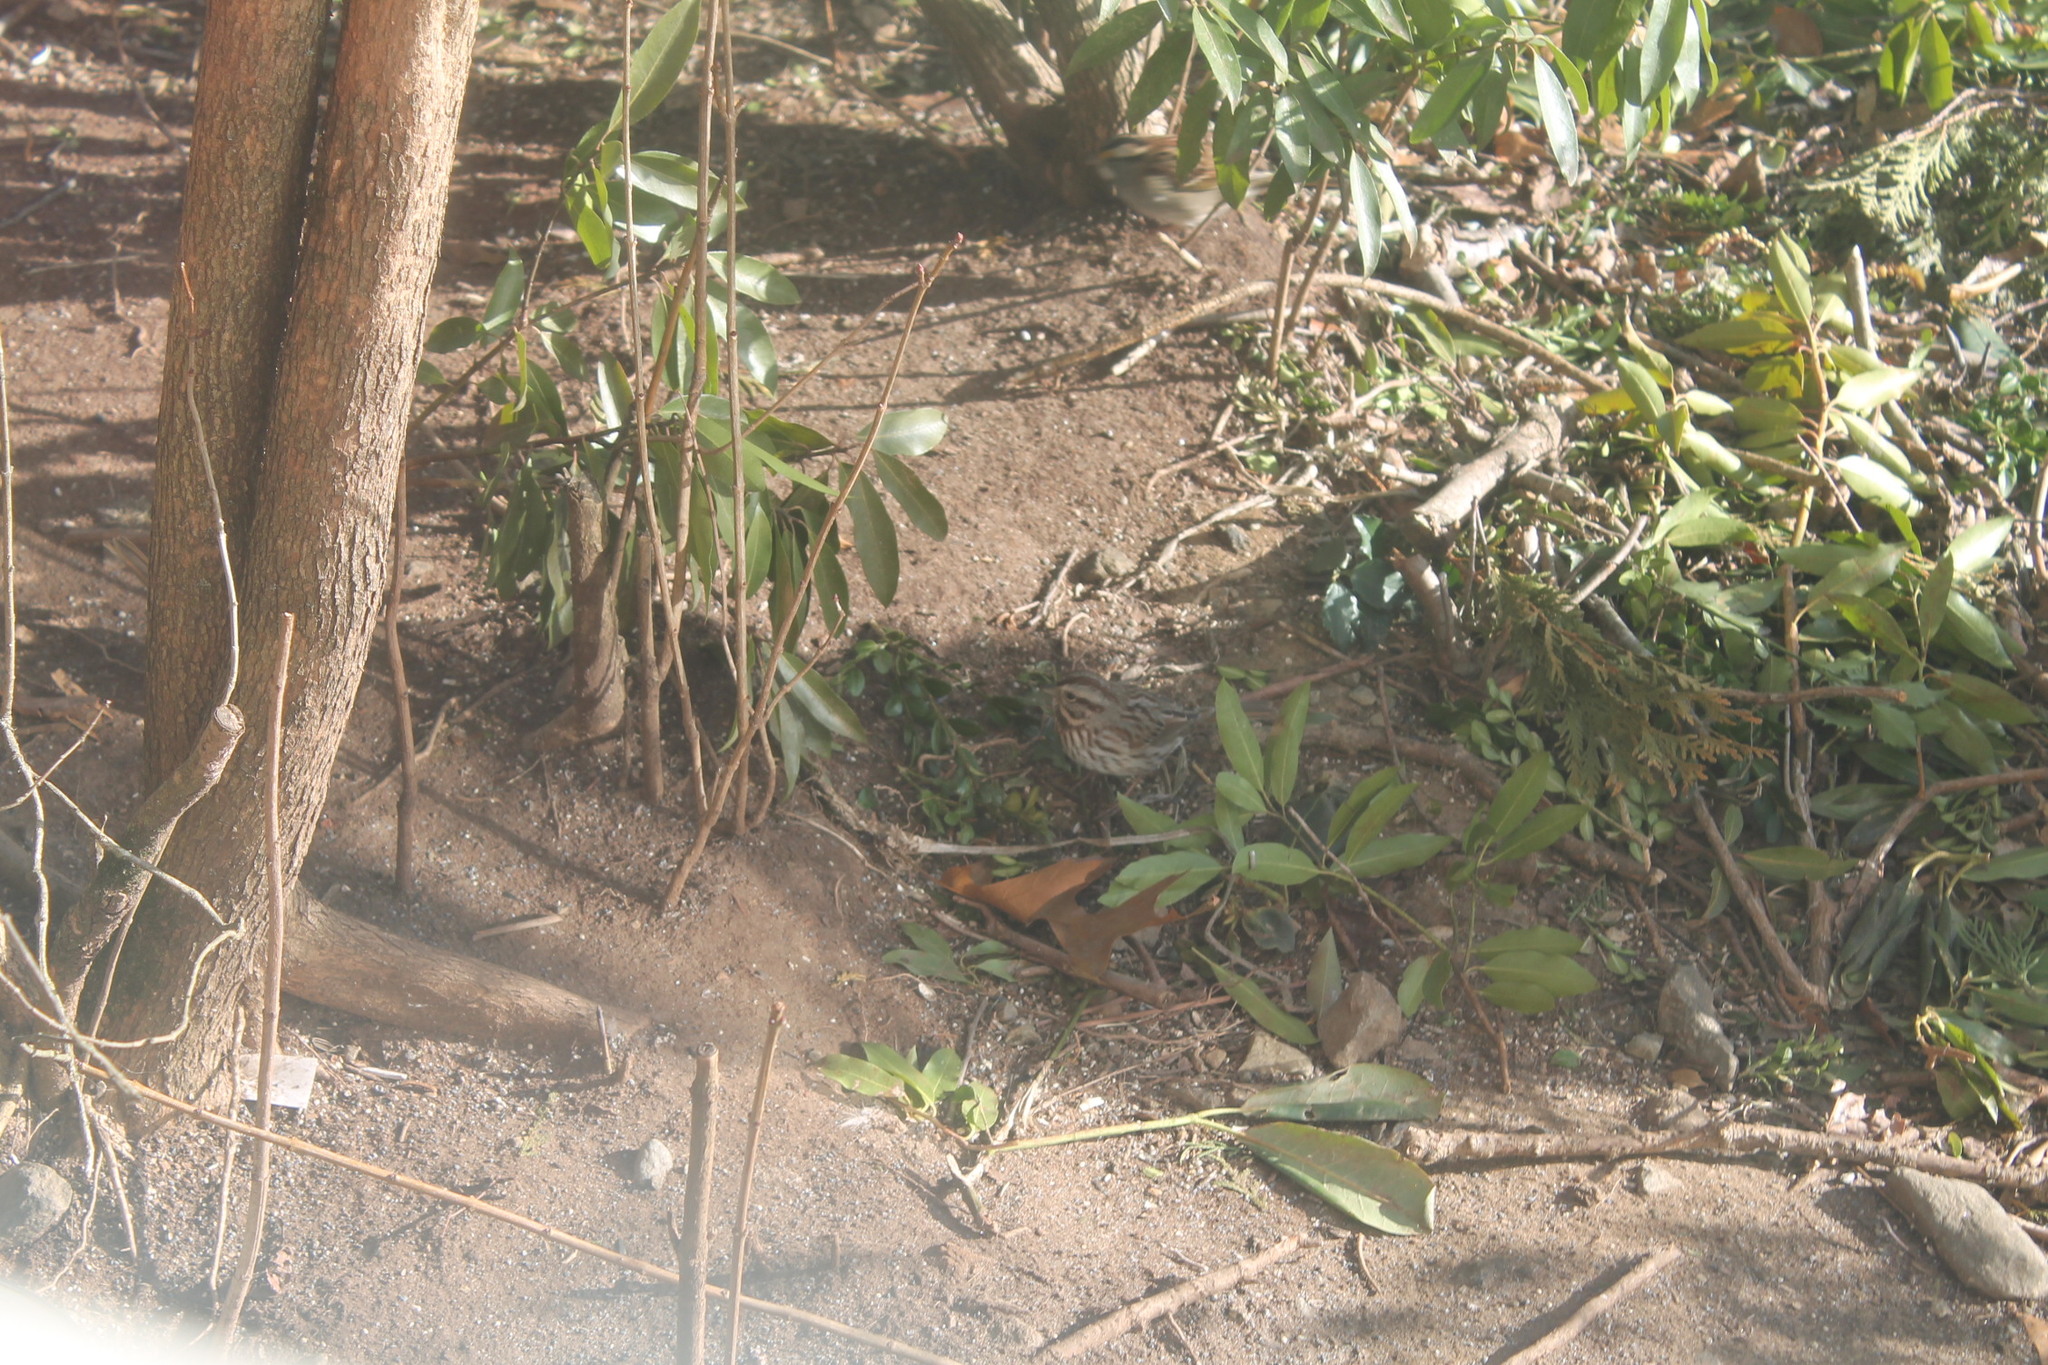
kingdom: Animalia
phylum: Chordata
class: Aves
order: Passeriformes
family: Passerellidae
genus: Melospiza
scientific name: Melospiza melodia
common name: Song sparrow
